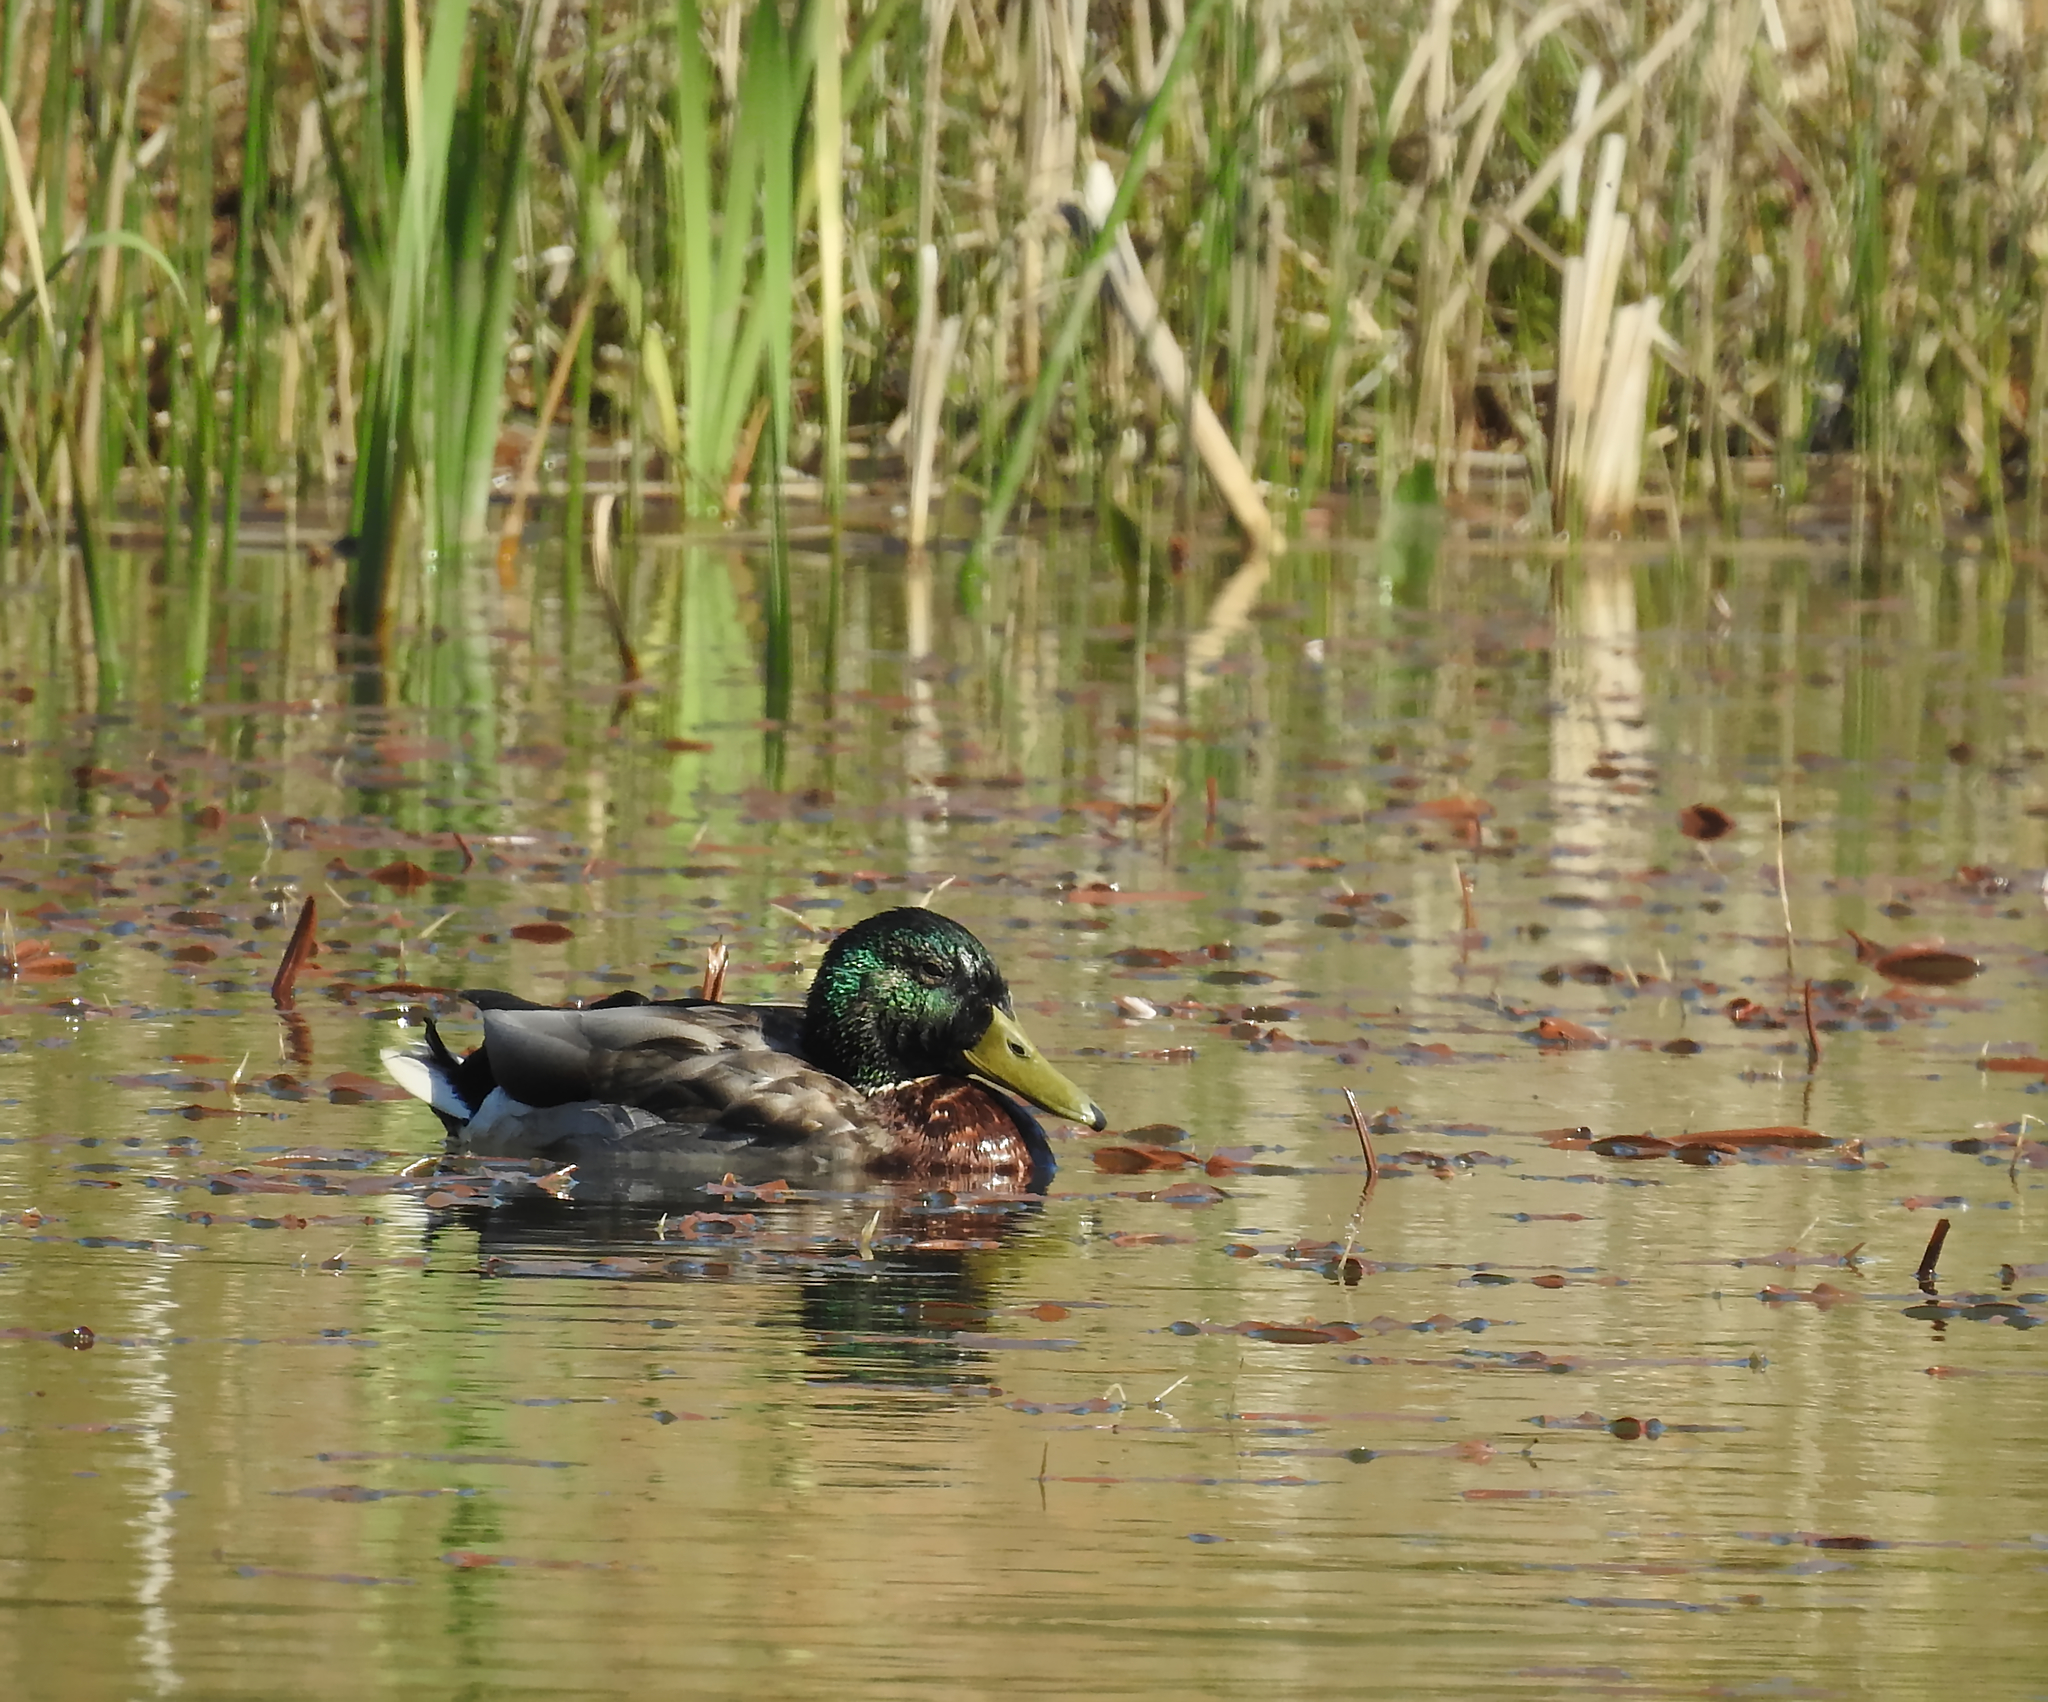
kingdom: Animalia
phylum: Chordata
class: Aves
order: Anseriformes
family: Anatidae
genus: Anas
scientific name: Anas platyrhynchos
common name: Mallard
